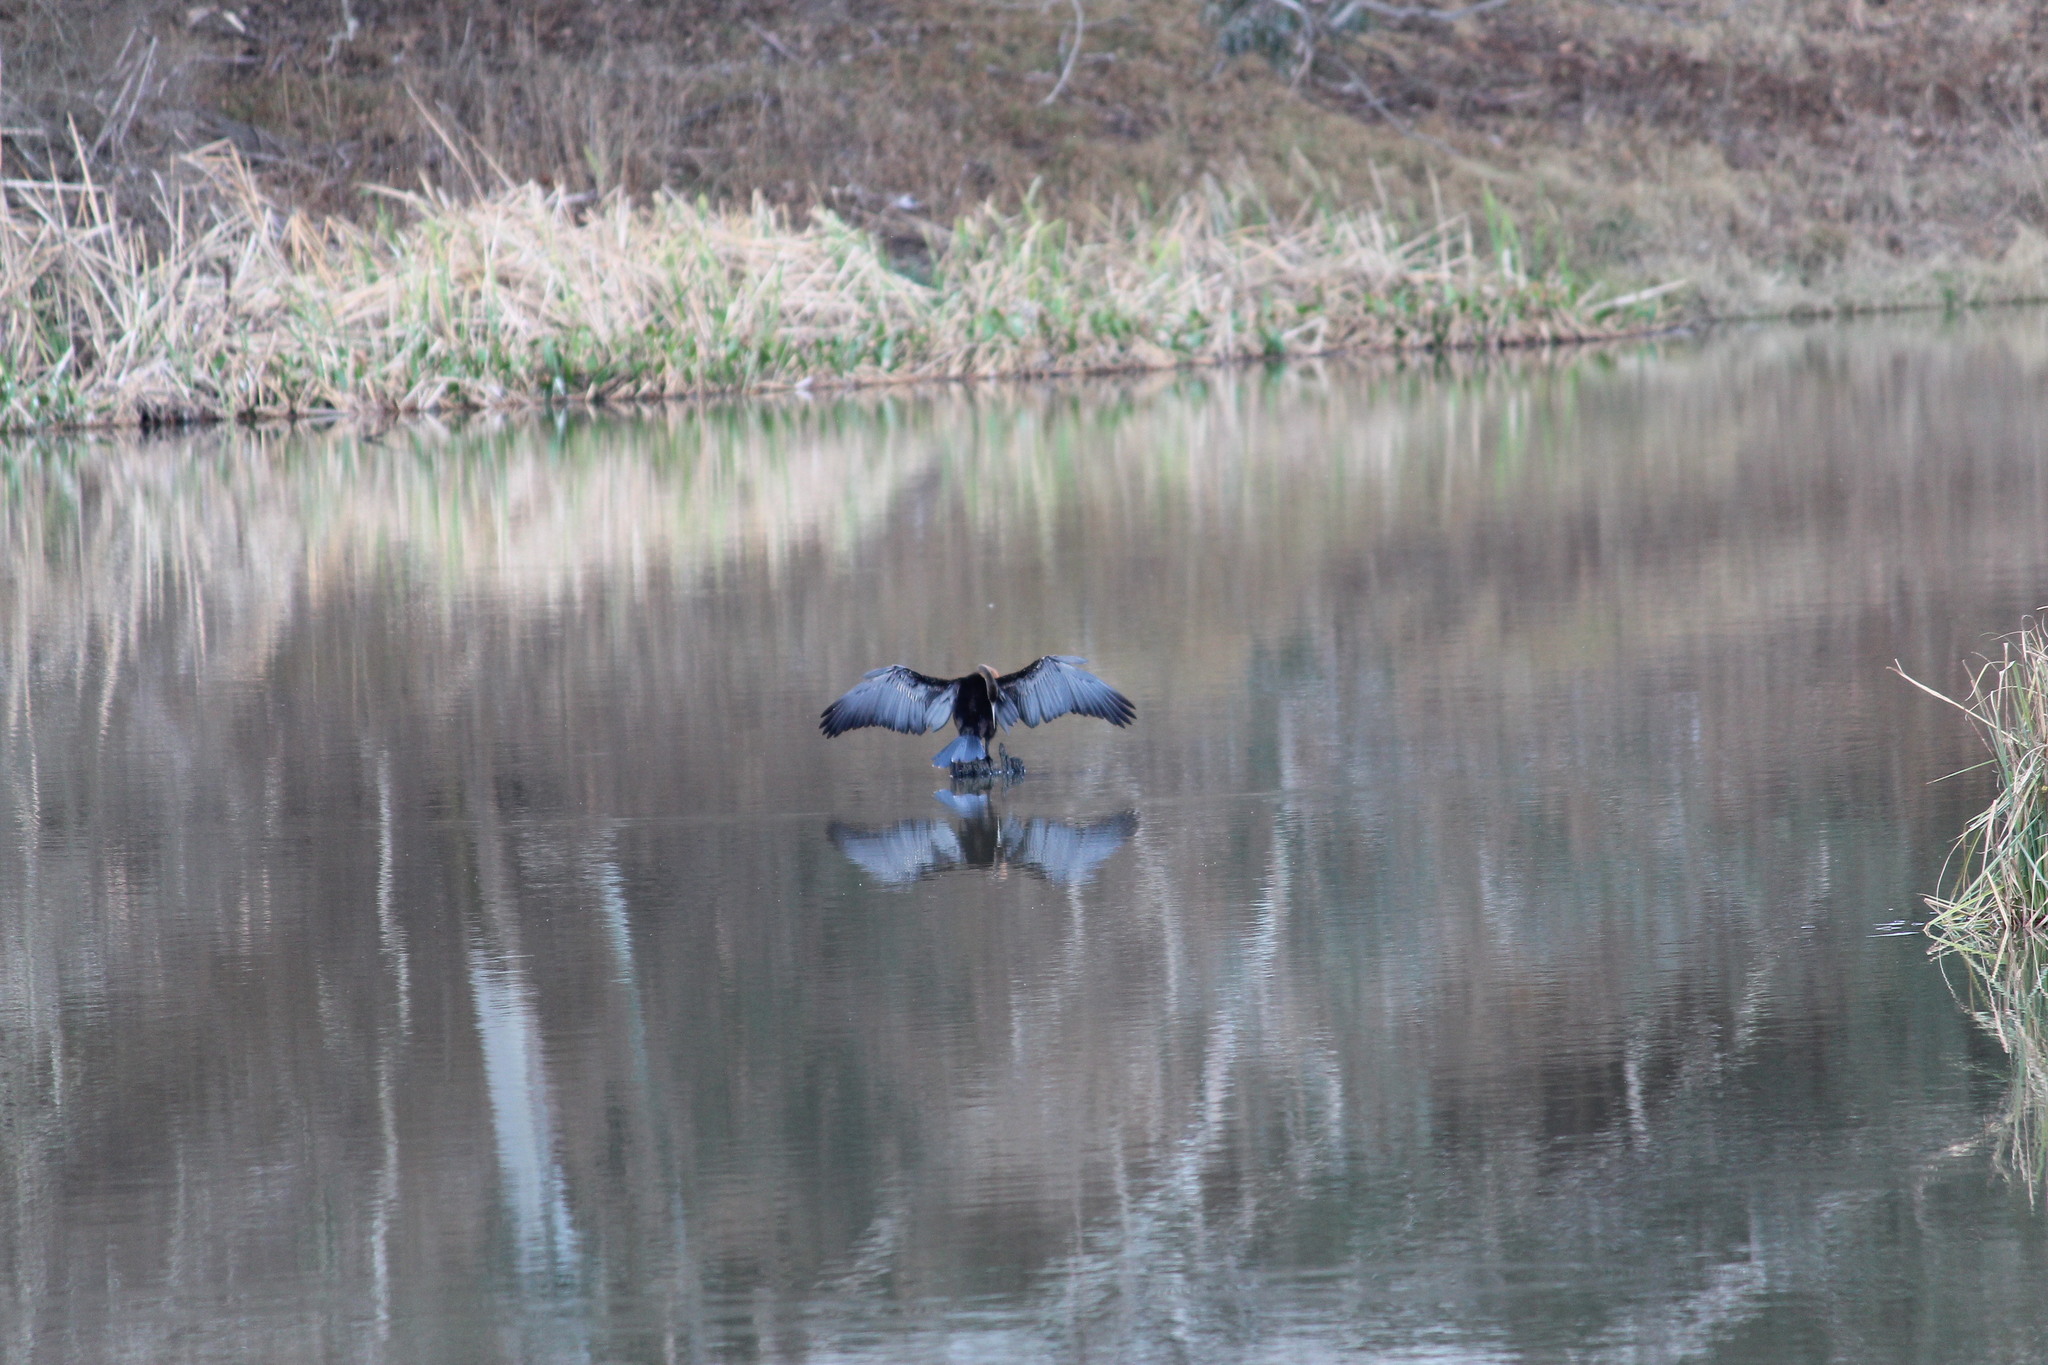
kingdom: Animalia
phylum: Chordata
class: Aves
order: Suliformes
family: Anhingidae
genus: Anhinga
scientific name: Anhinga rufa
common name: African darter
